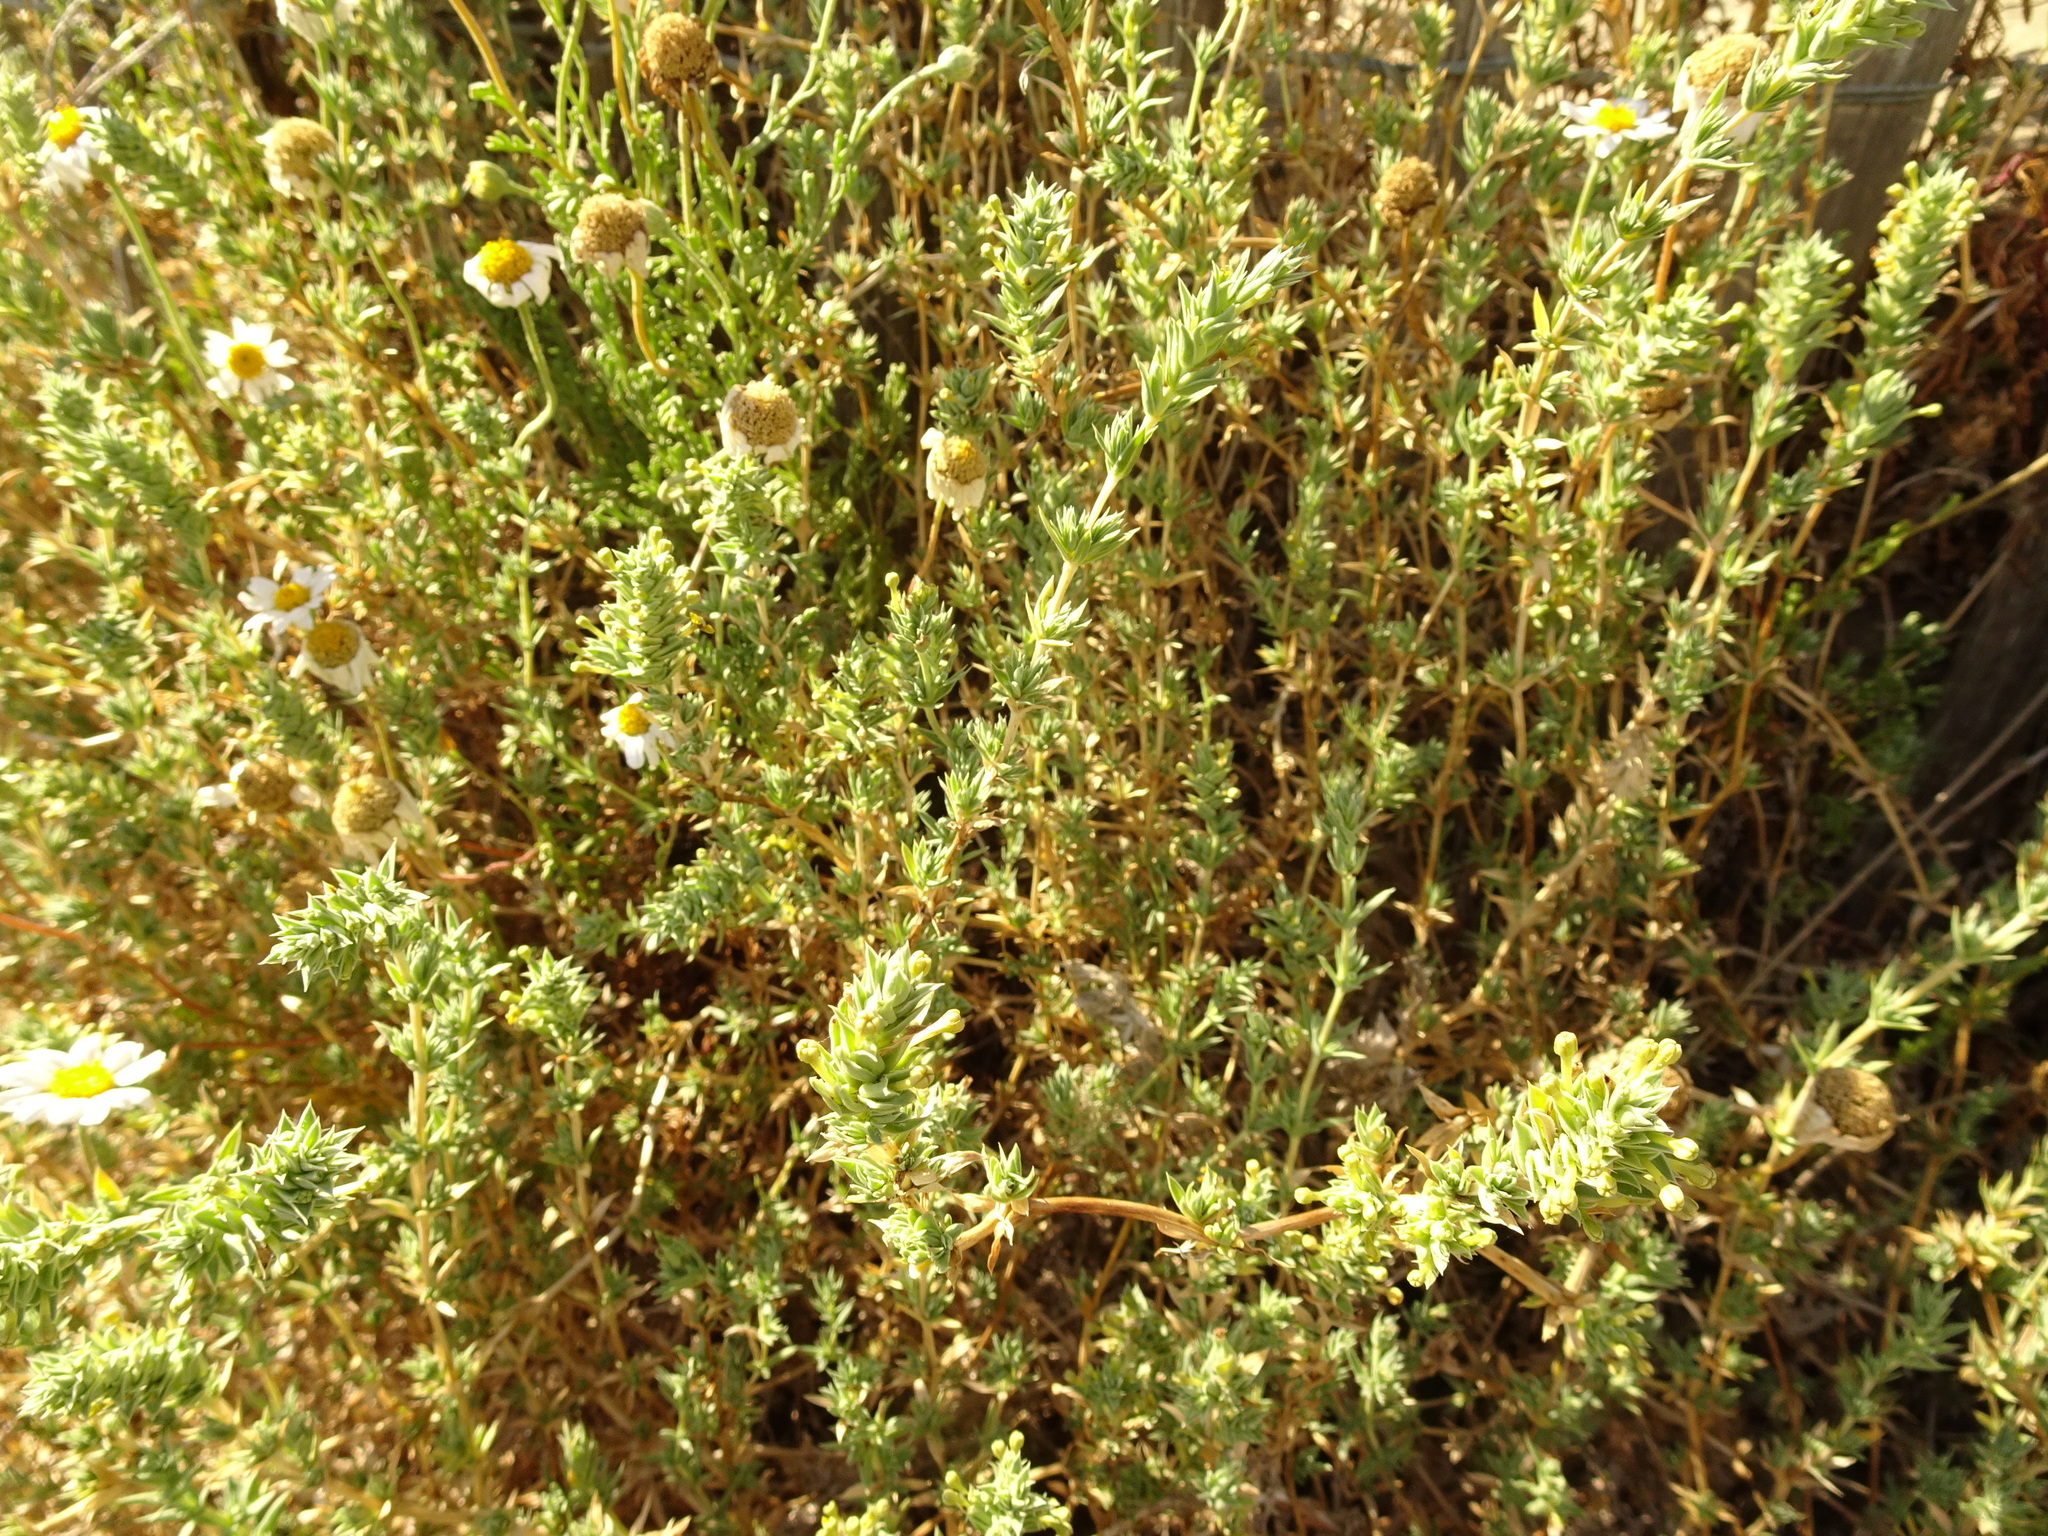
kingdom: Plantae
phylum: Tracheophyta
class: Magnoliopsida
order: Gentianales
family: Rubiaceae
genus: Crucianella
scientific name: Crucianella maritima
